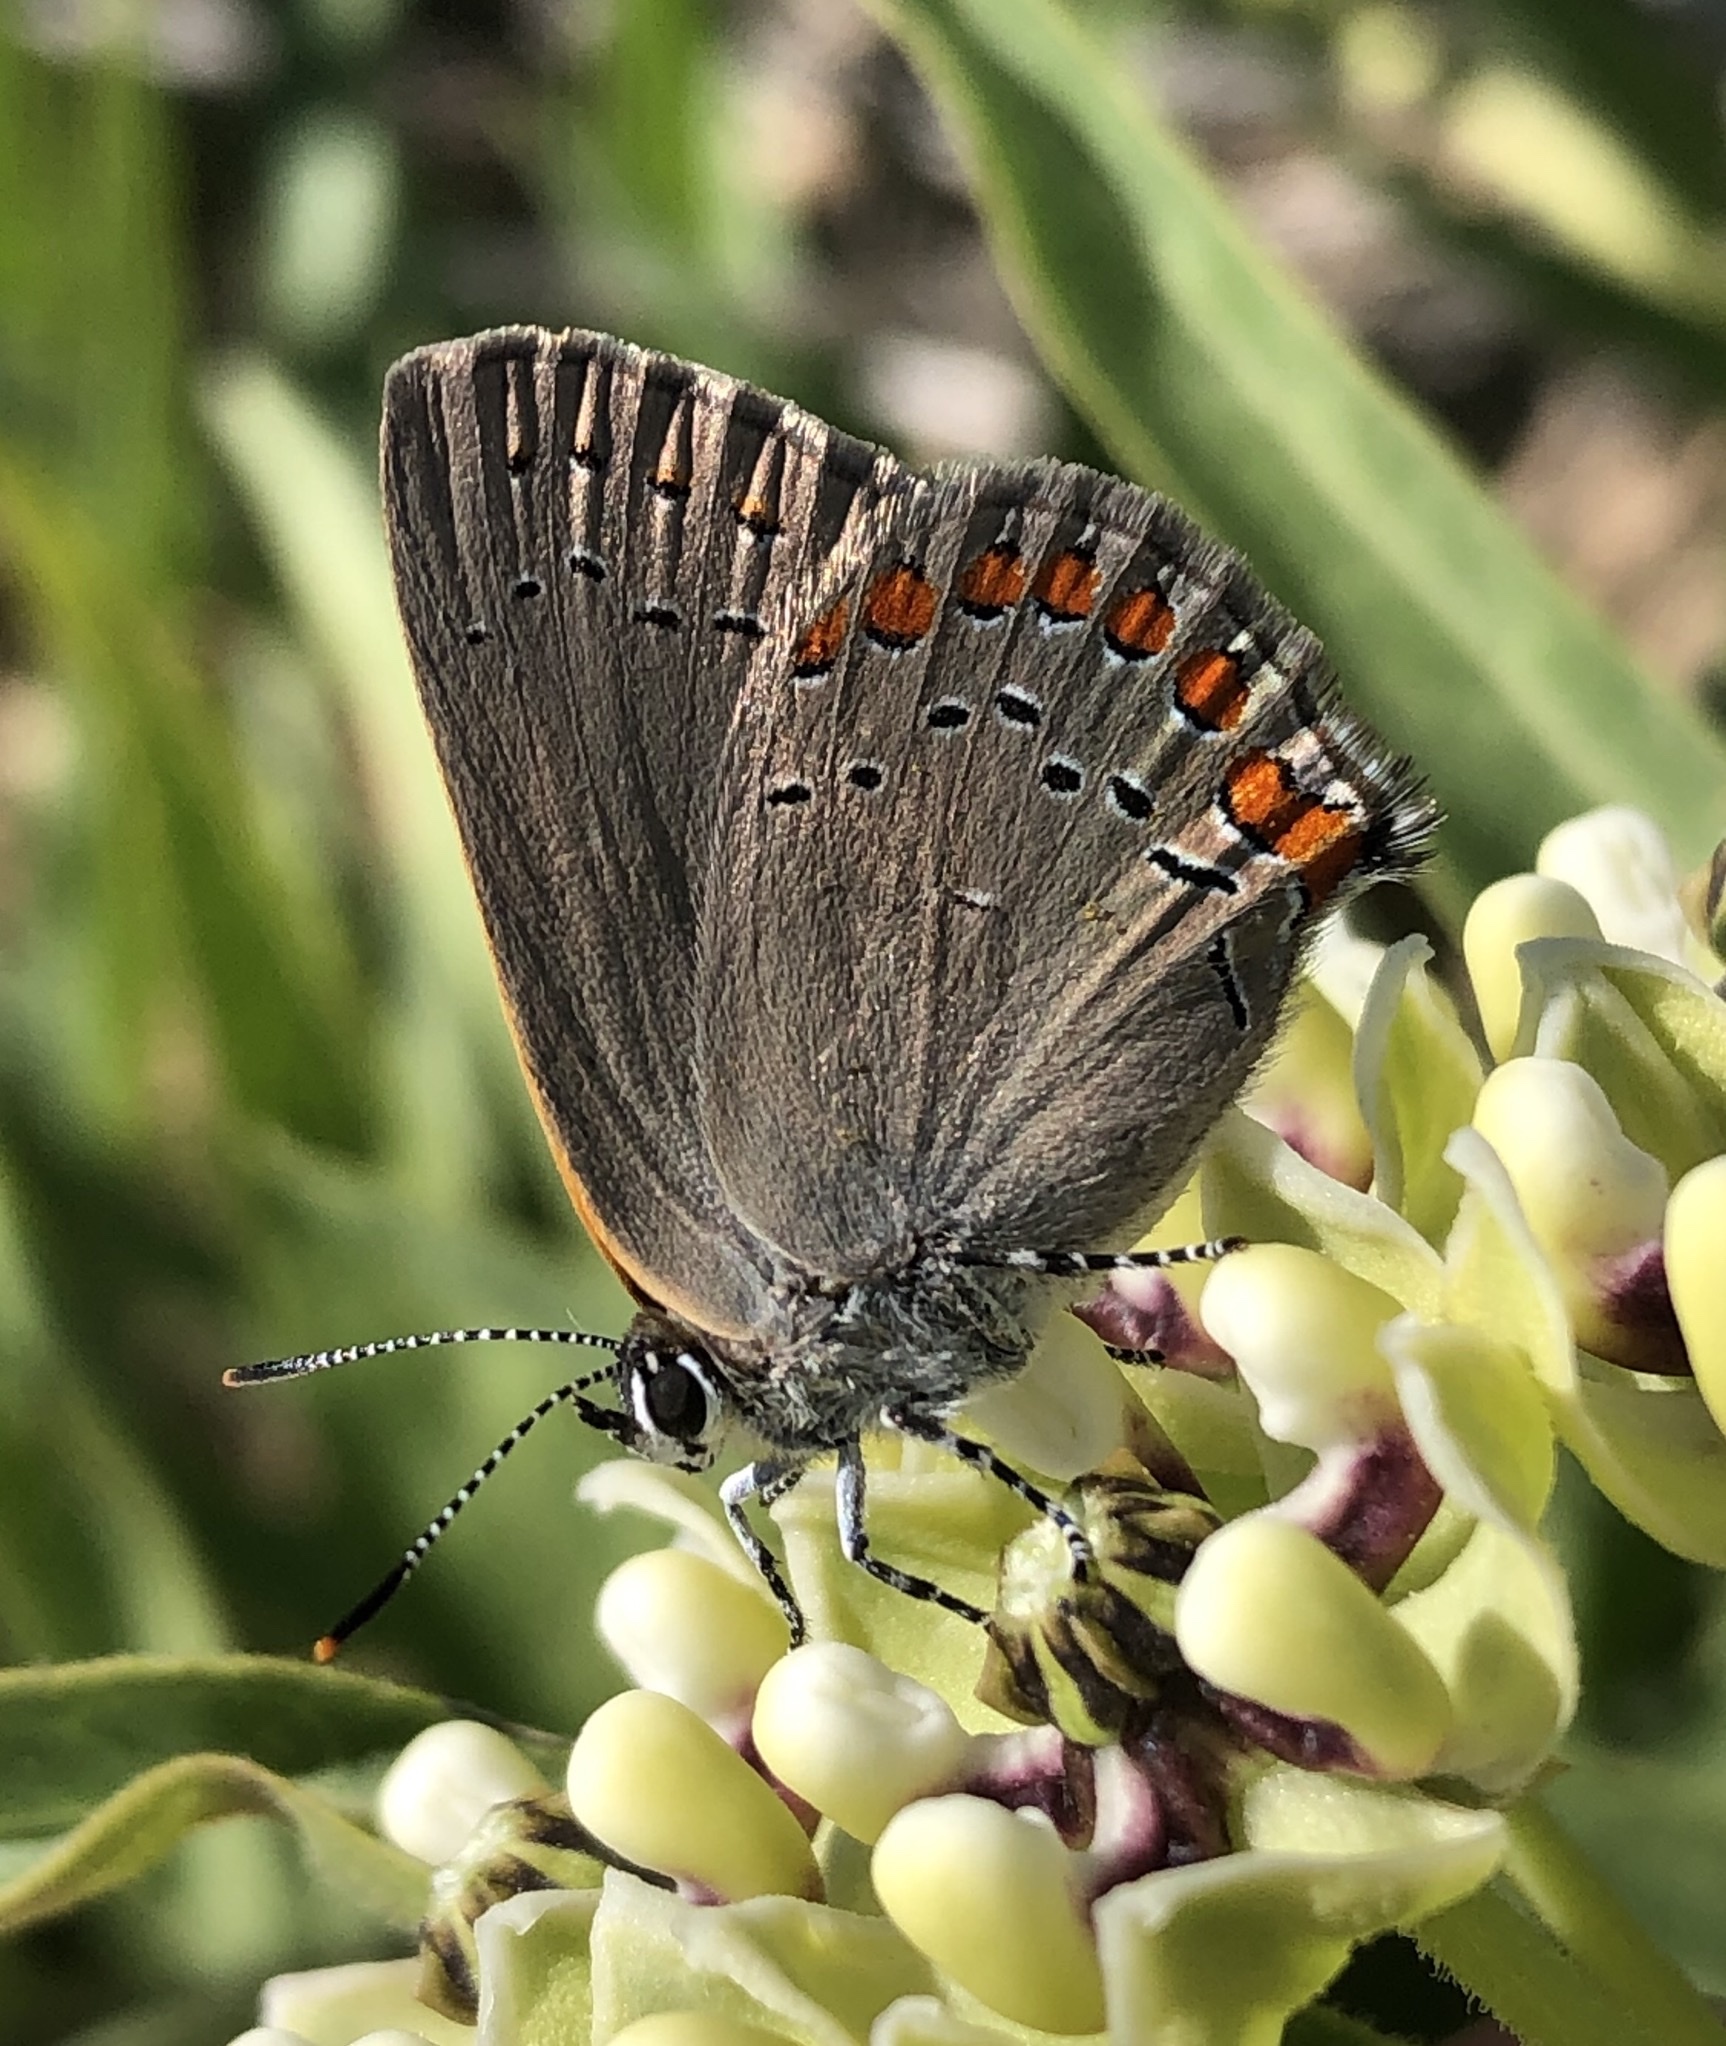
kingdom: Animalia
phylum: Arthropoda
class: Insecta
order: Lepidoptera
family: Lycaenidae
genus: Harkenclenus
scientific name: Harkenclenus titus
